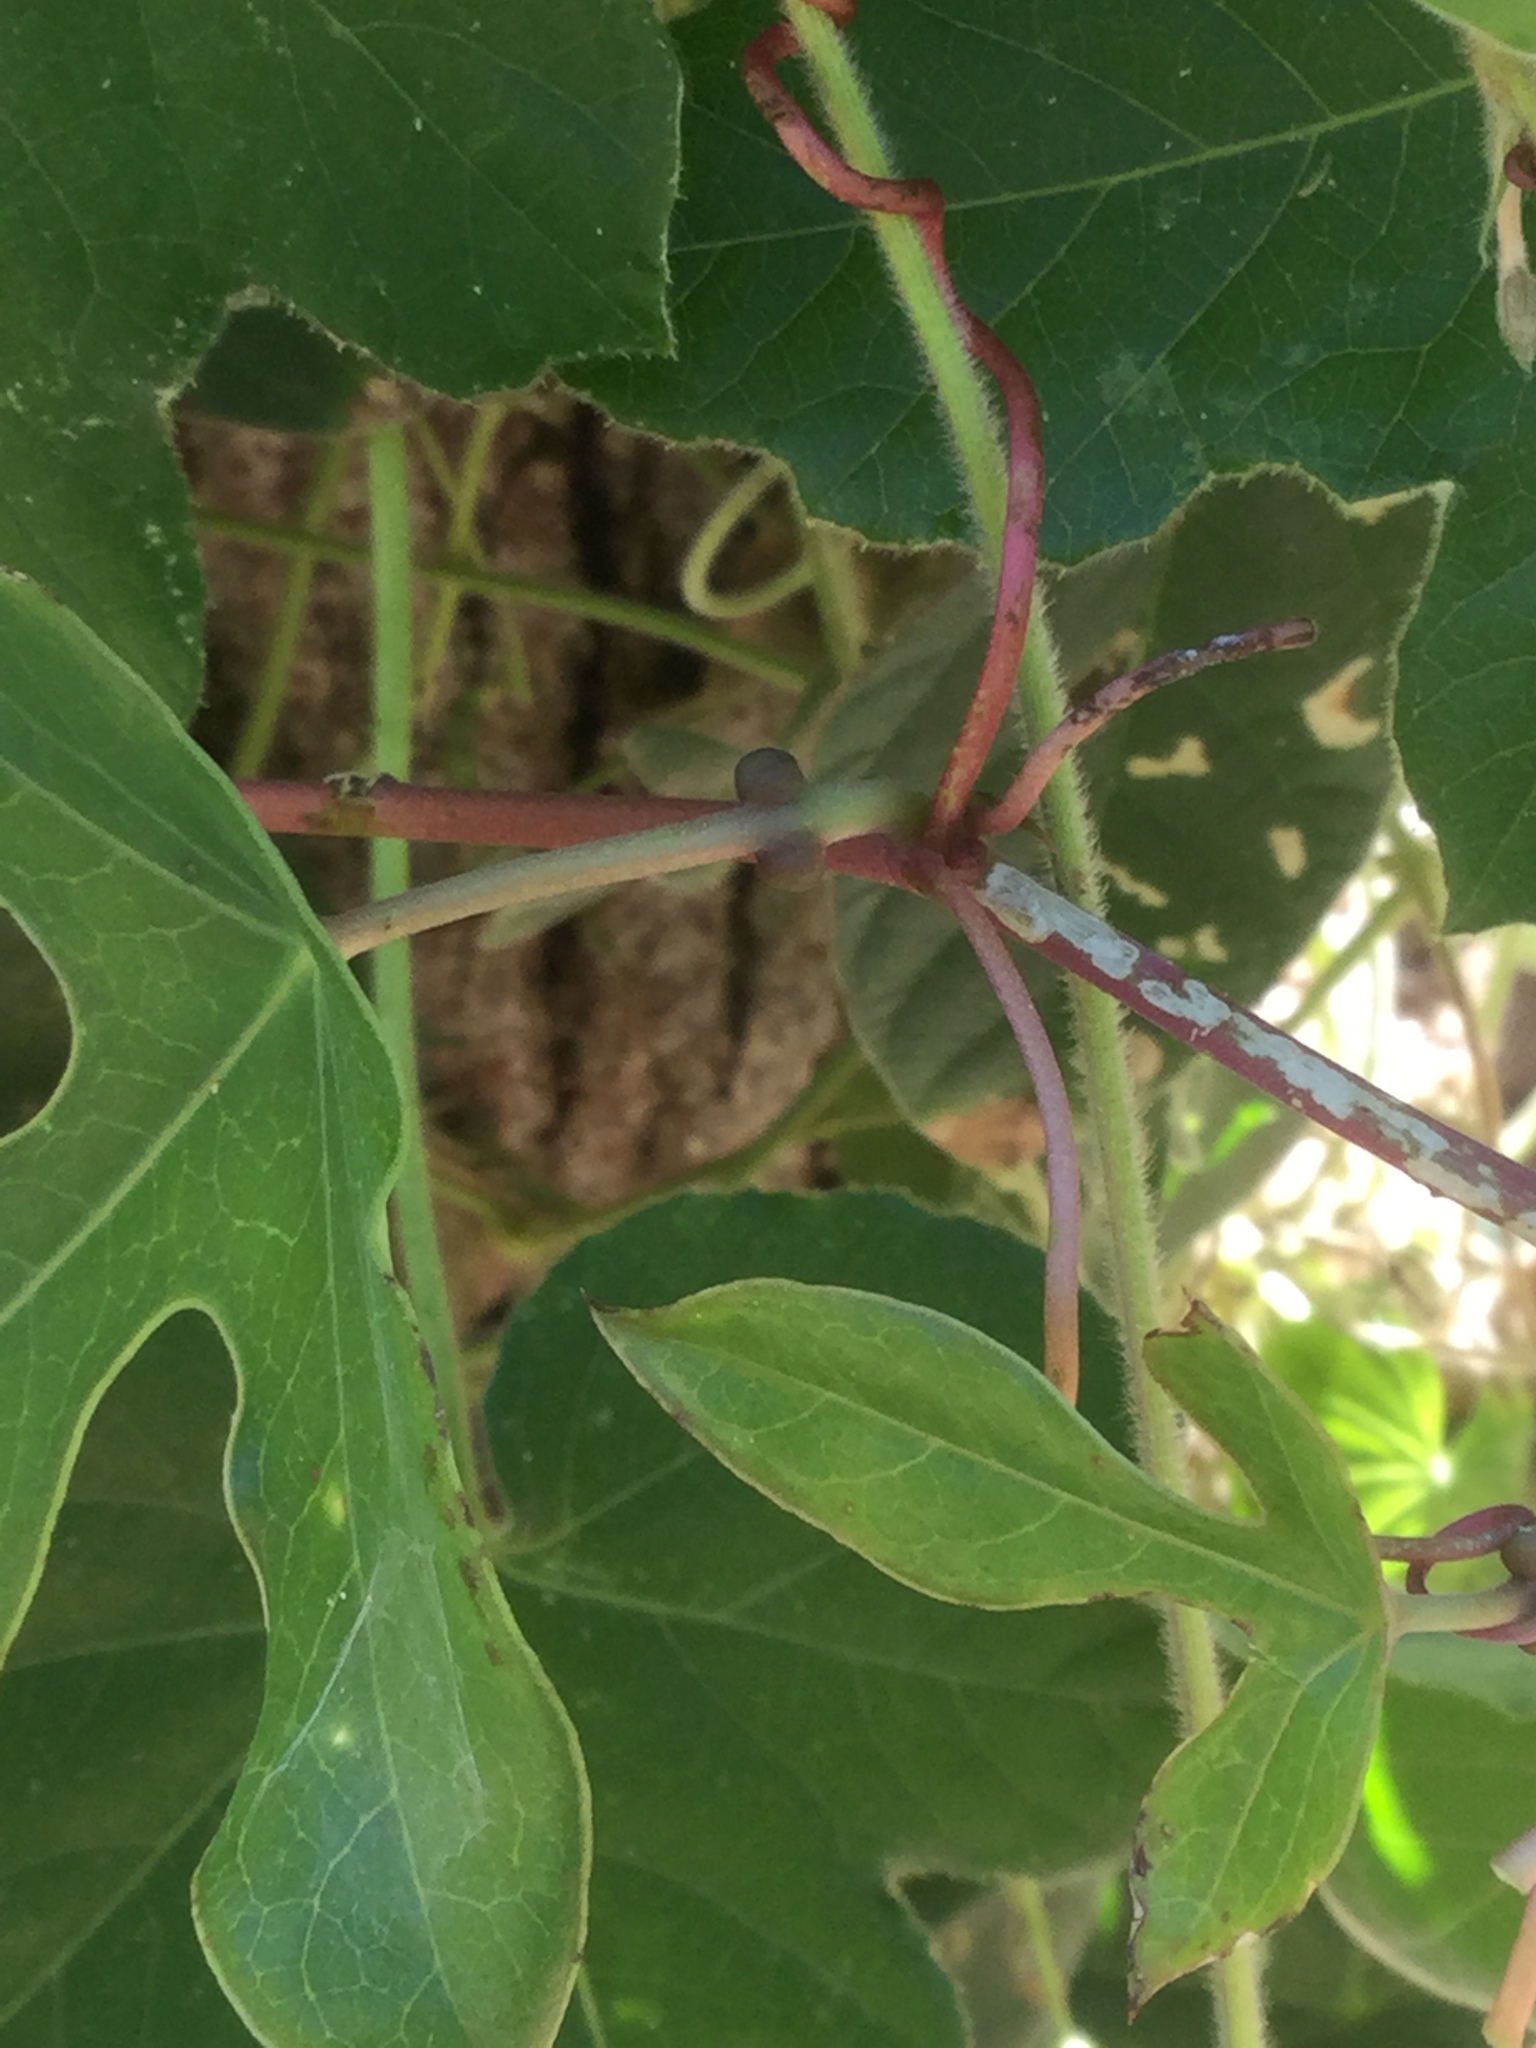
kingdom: Plantae
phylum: Tracheophyta
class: Magnoliopsida
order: Malpighiales
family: Passifloraceae
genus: Passiflora
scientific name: Passiflora viridiflora
